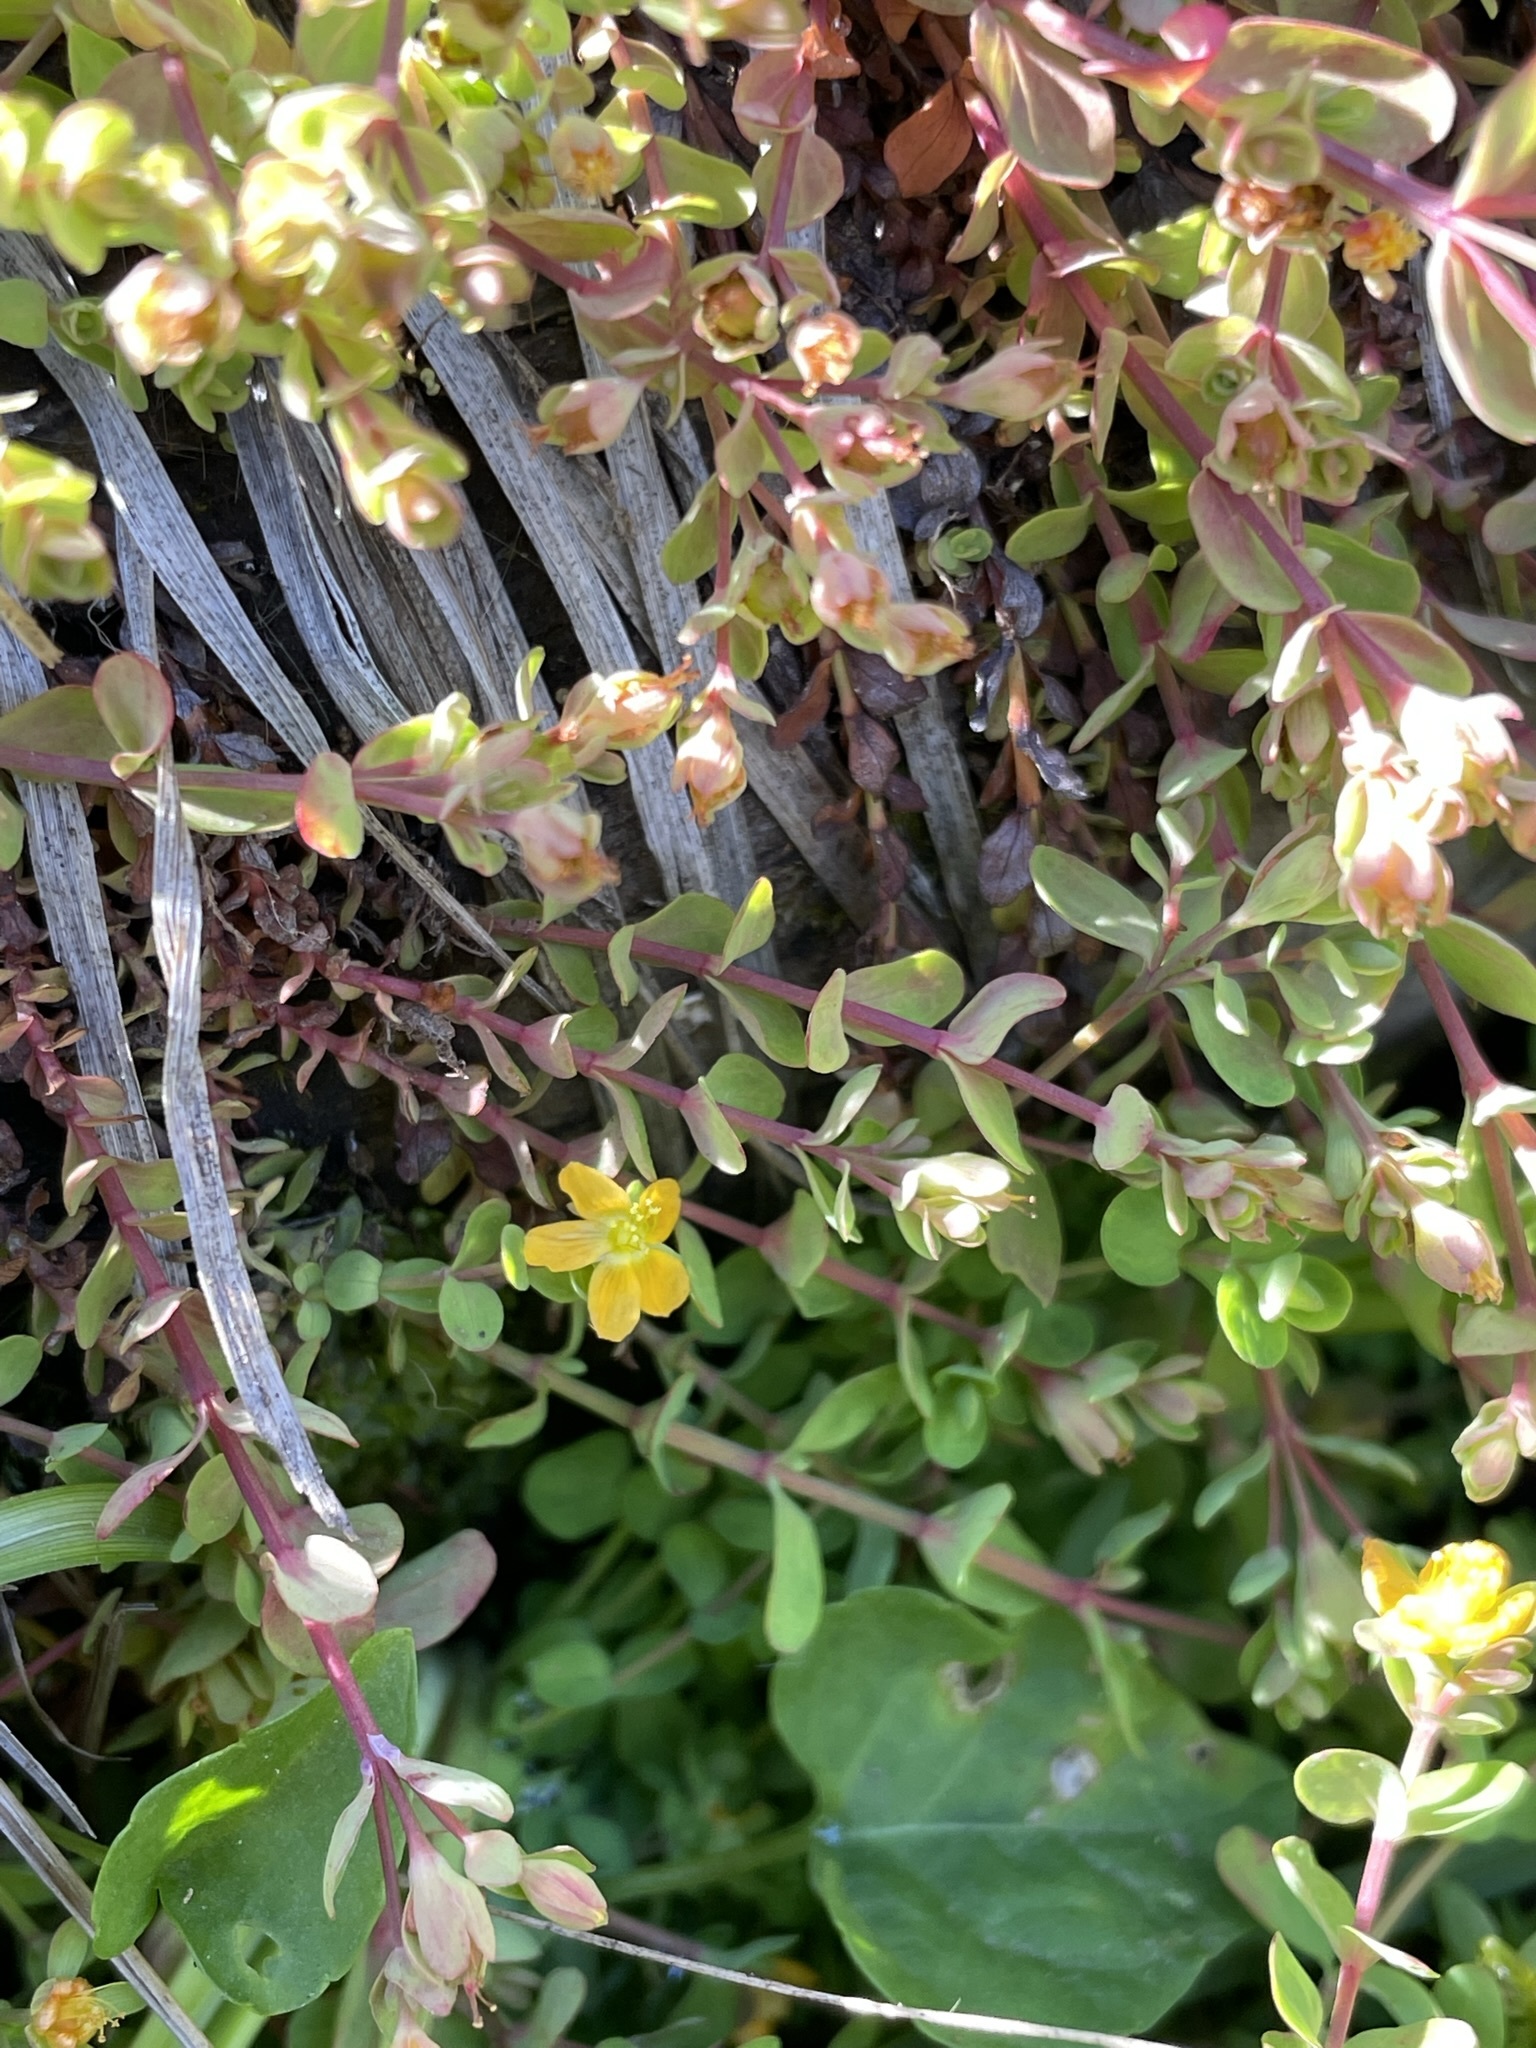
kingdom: Plantae
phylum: Tracheophyta
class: Magnoliopsida
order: Malpighiales
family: Hypericaceae
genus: Hypericum
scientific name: Hypericum anagalloides
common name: Bog st. john's-wort
